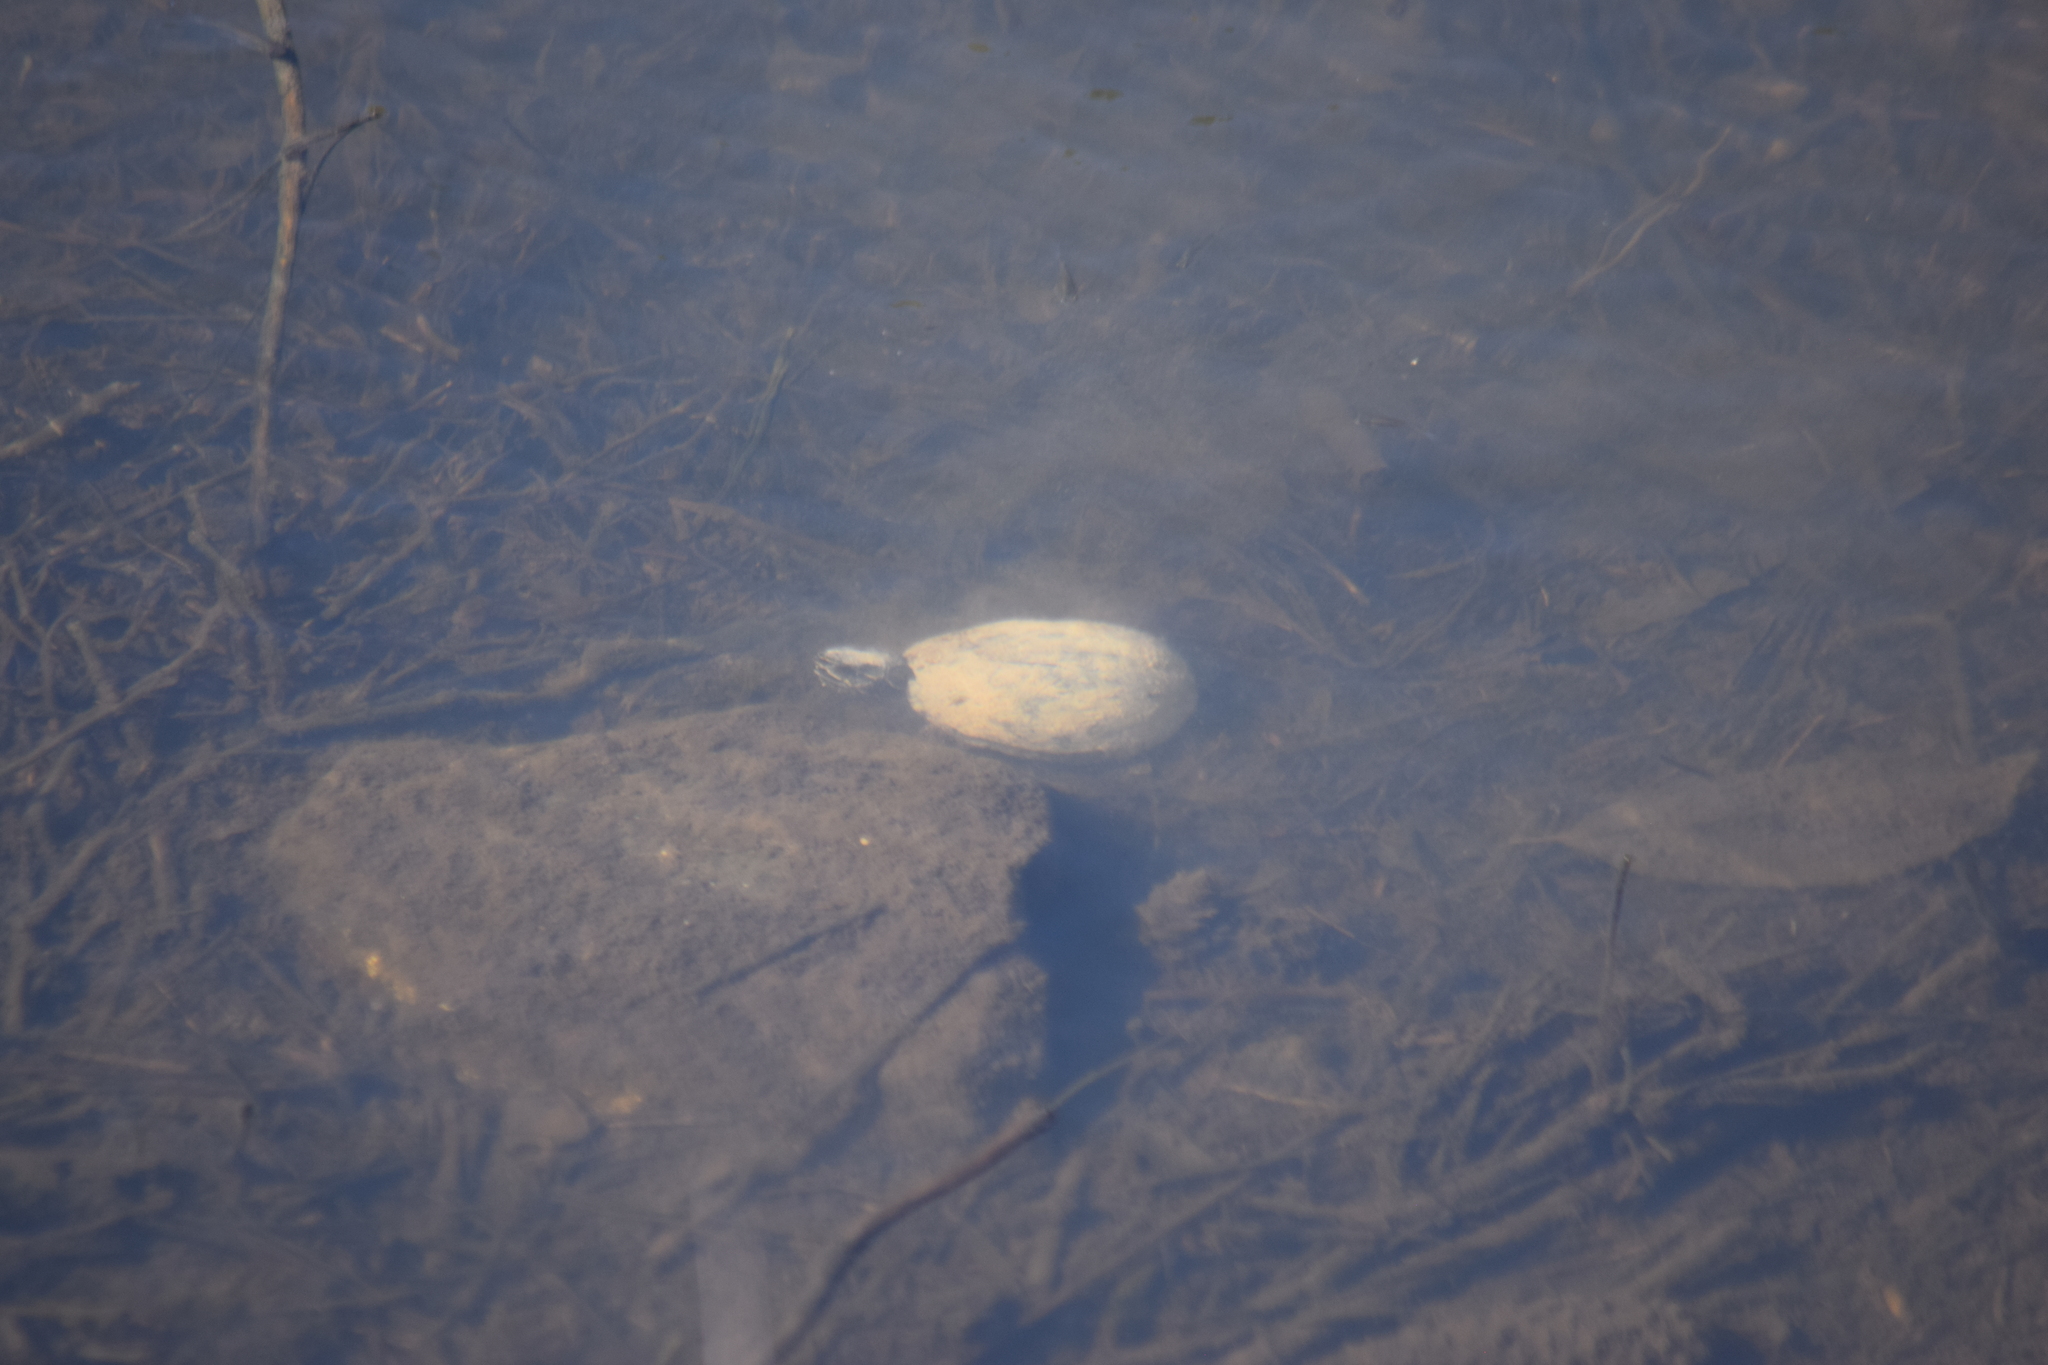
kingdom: Animalia
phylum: Chordata
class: Testudines
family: Kinosternidae
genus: Sternotherus
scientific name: Sternotherus odoratus
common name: Common musk turtle
